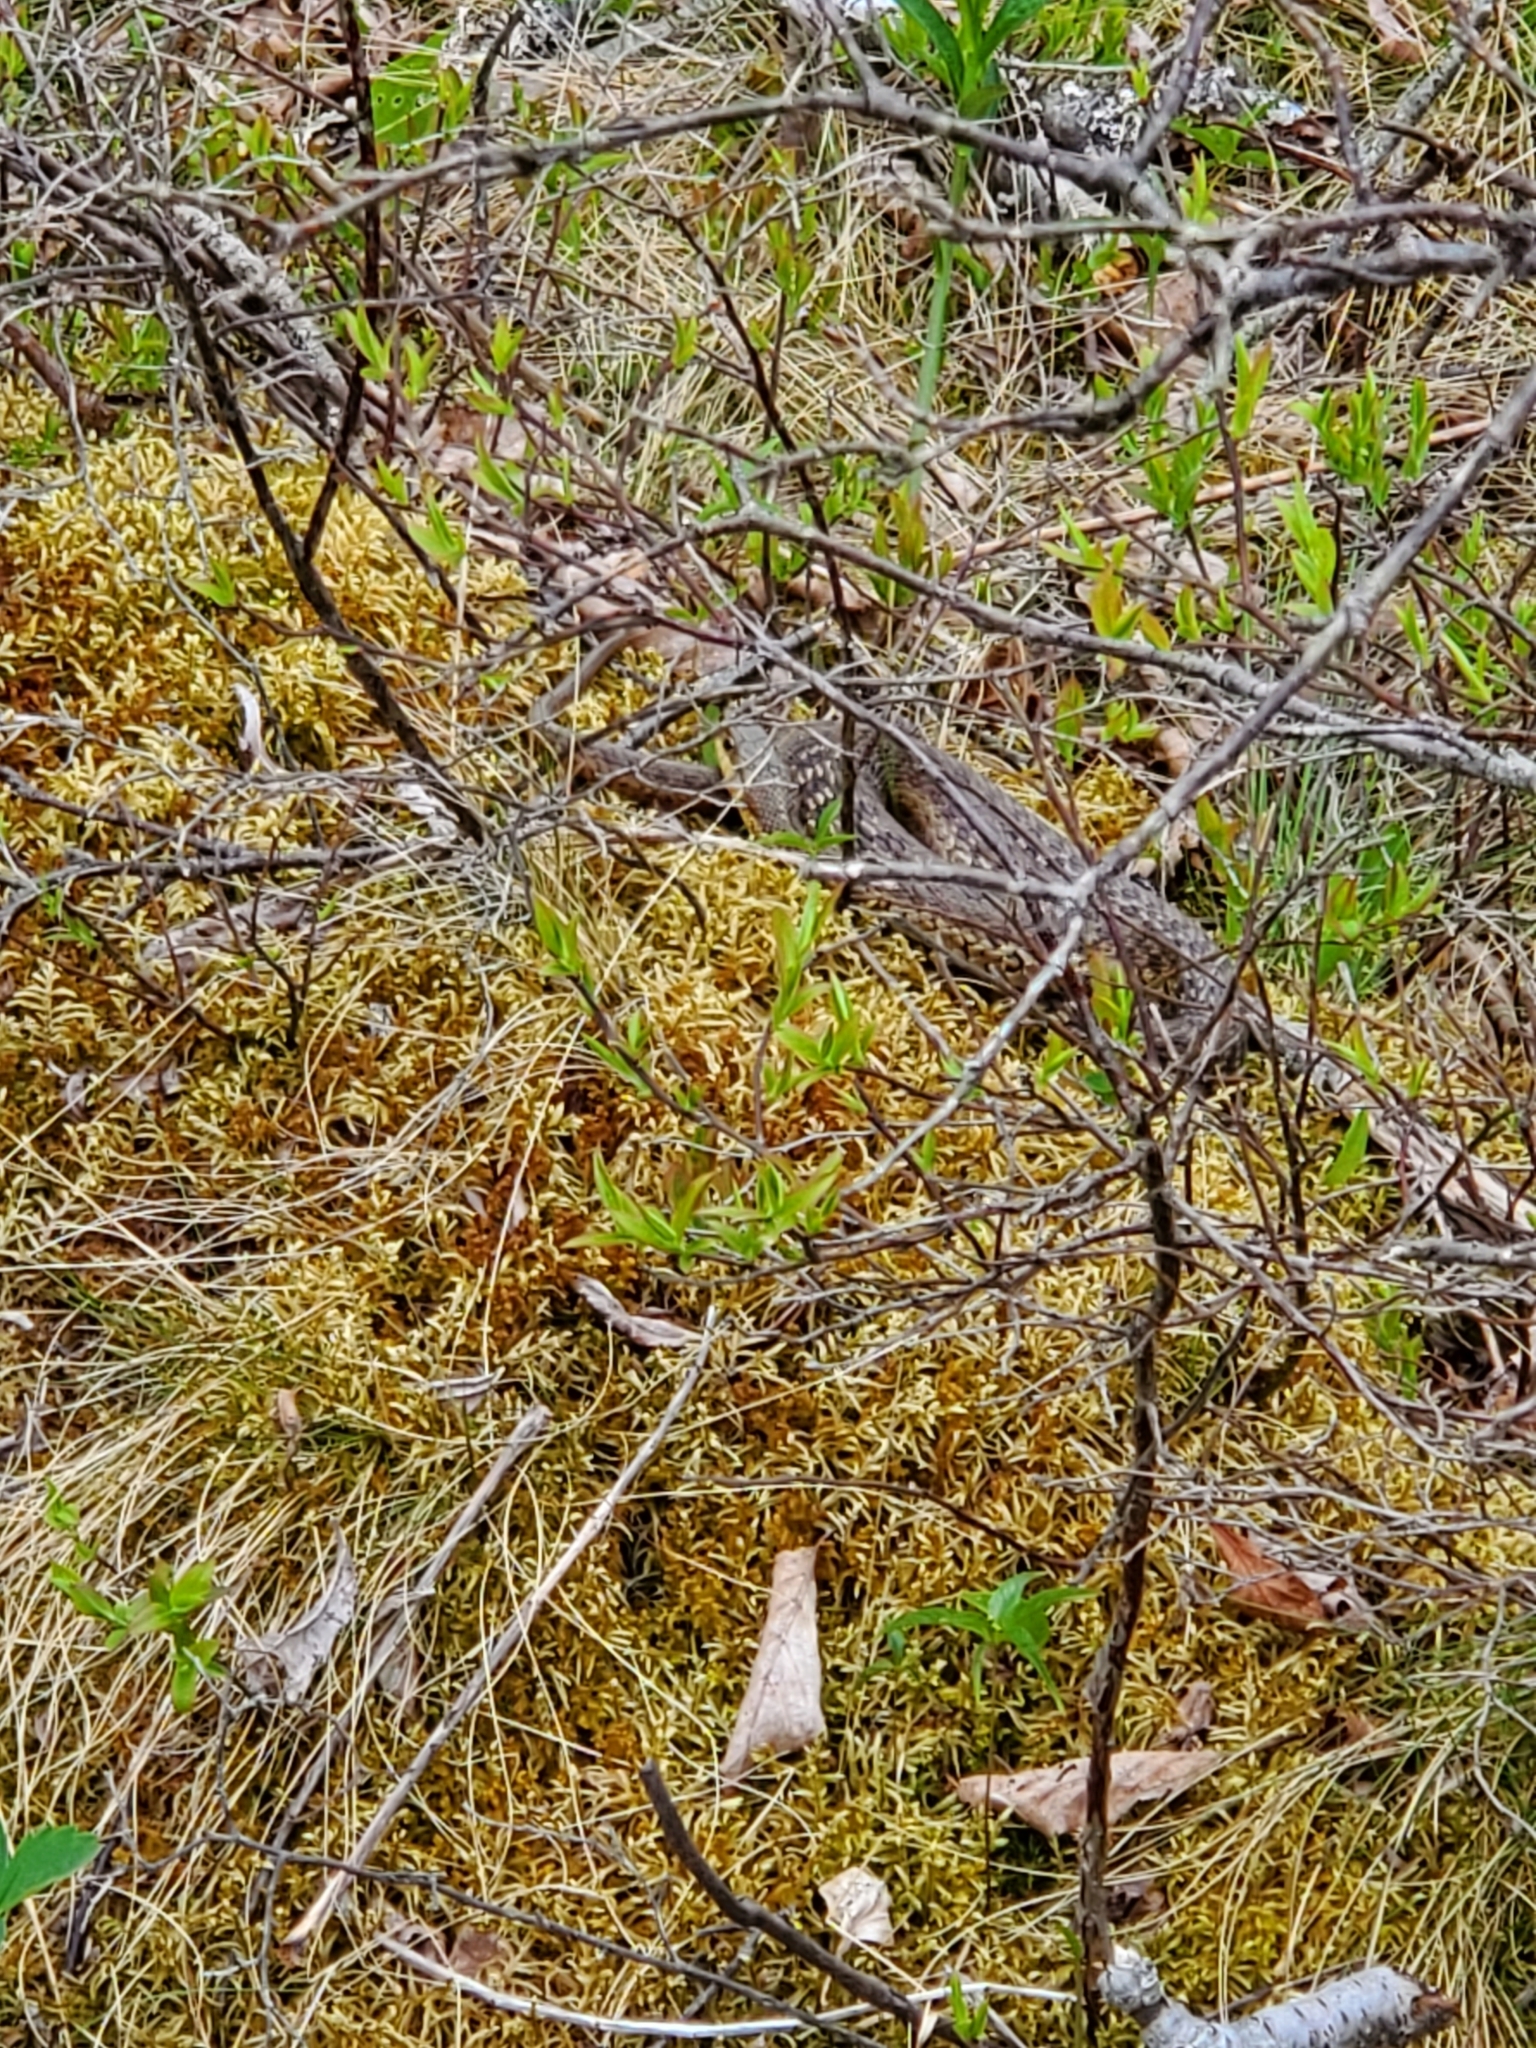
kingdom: Animalia
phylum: Chordata
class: Squamata
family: Colubridae
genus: Thamnophis
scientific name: Thamnophis sirtalis
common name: Common garter snake
